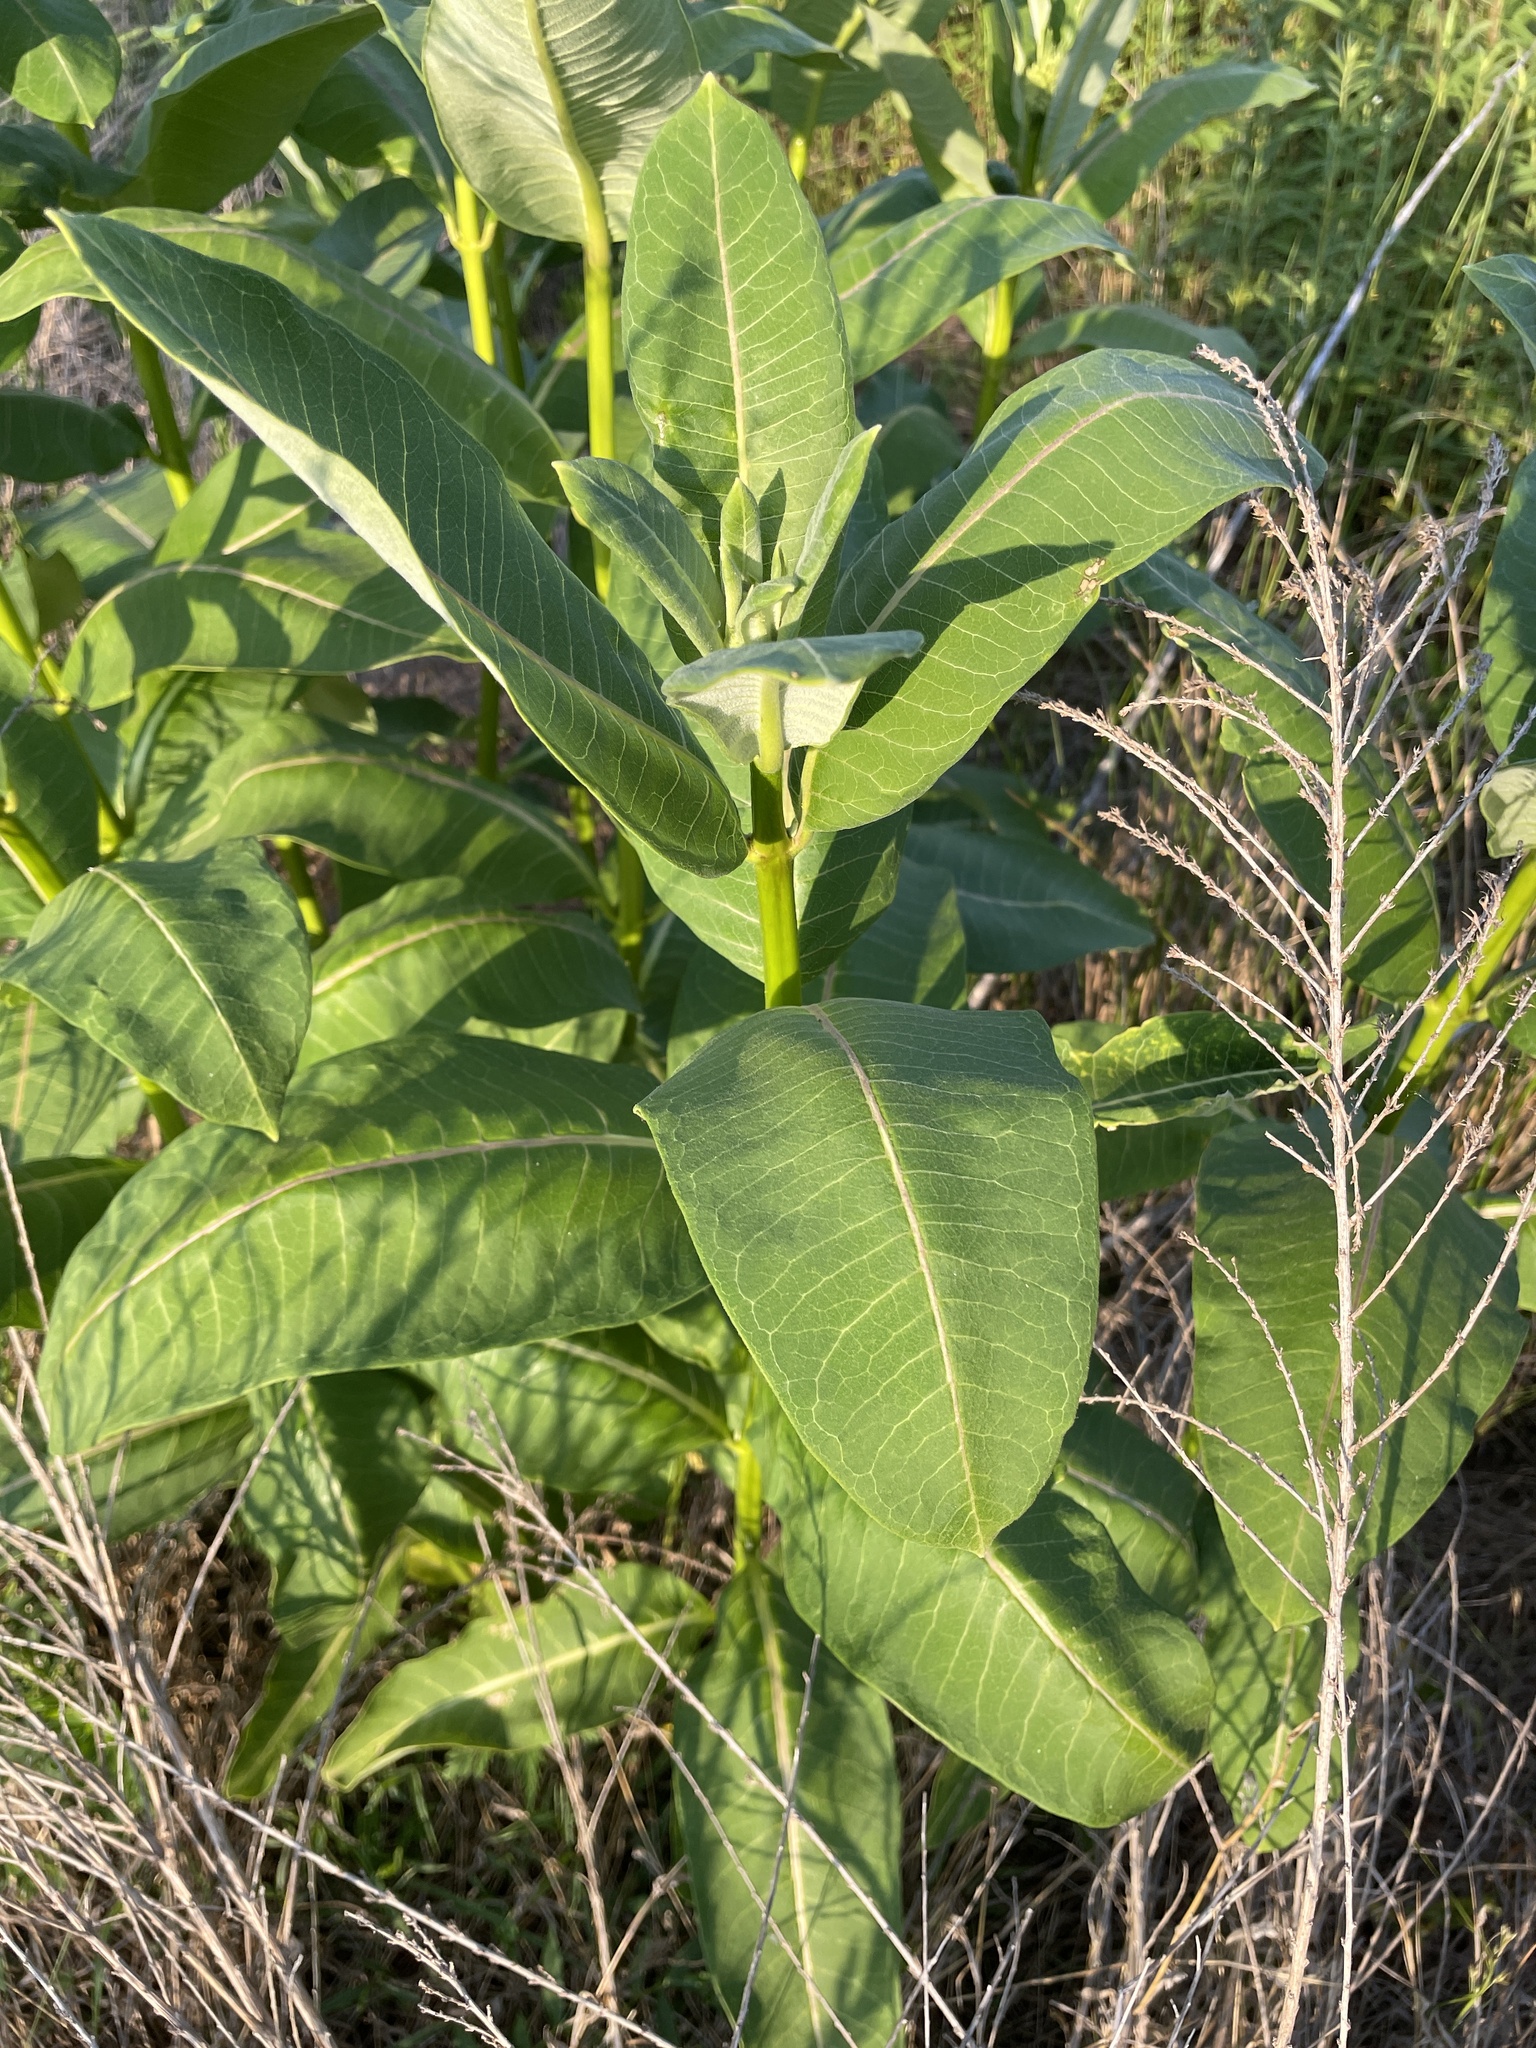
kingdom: Plantae
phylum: Tracheophyta
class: Magnoliopsida
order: Gentianales
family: Apocynaceae
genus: Asclepias
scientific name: Asclepias syriaca
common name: Common milkweed
